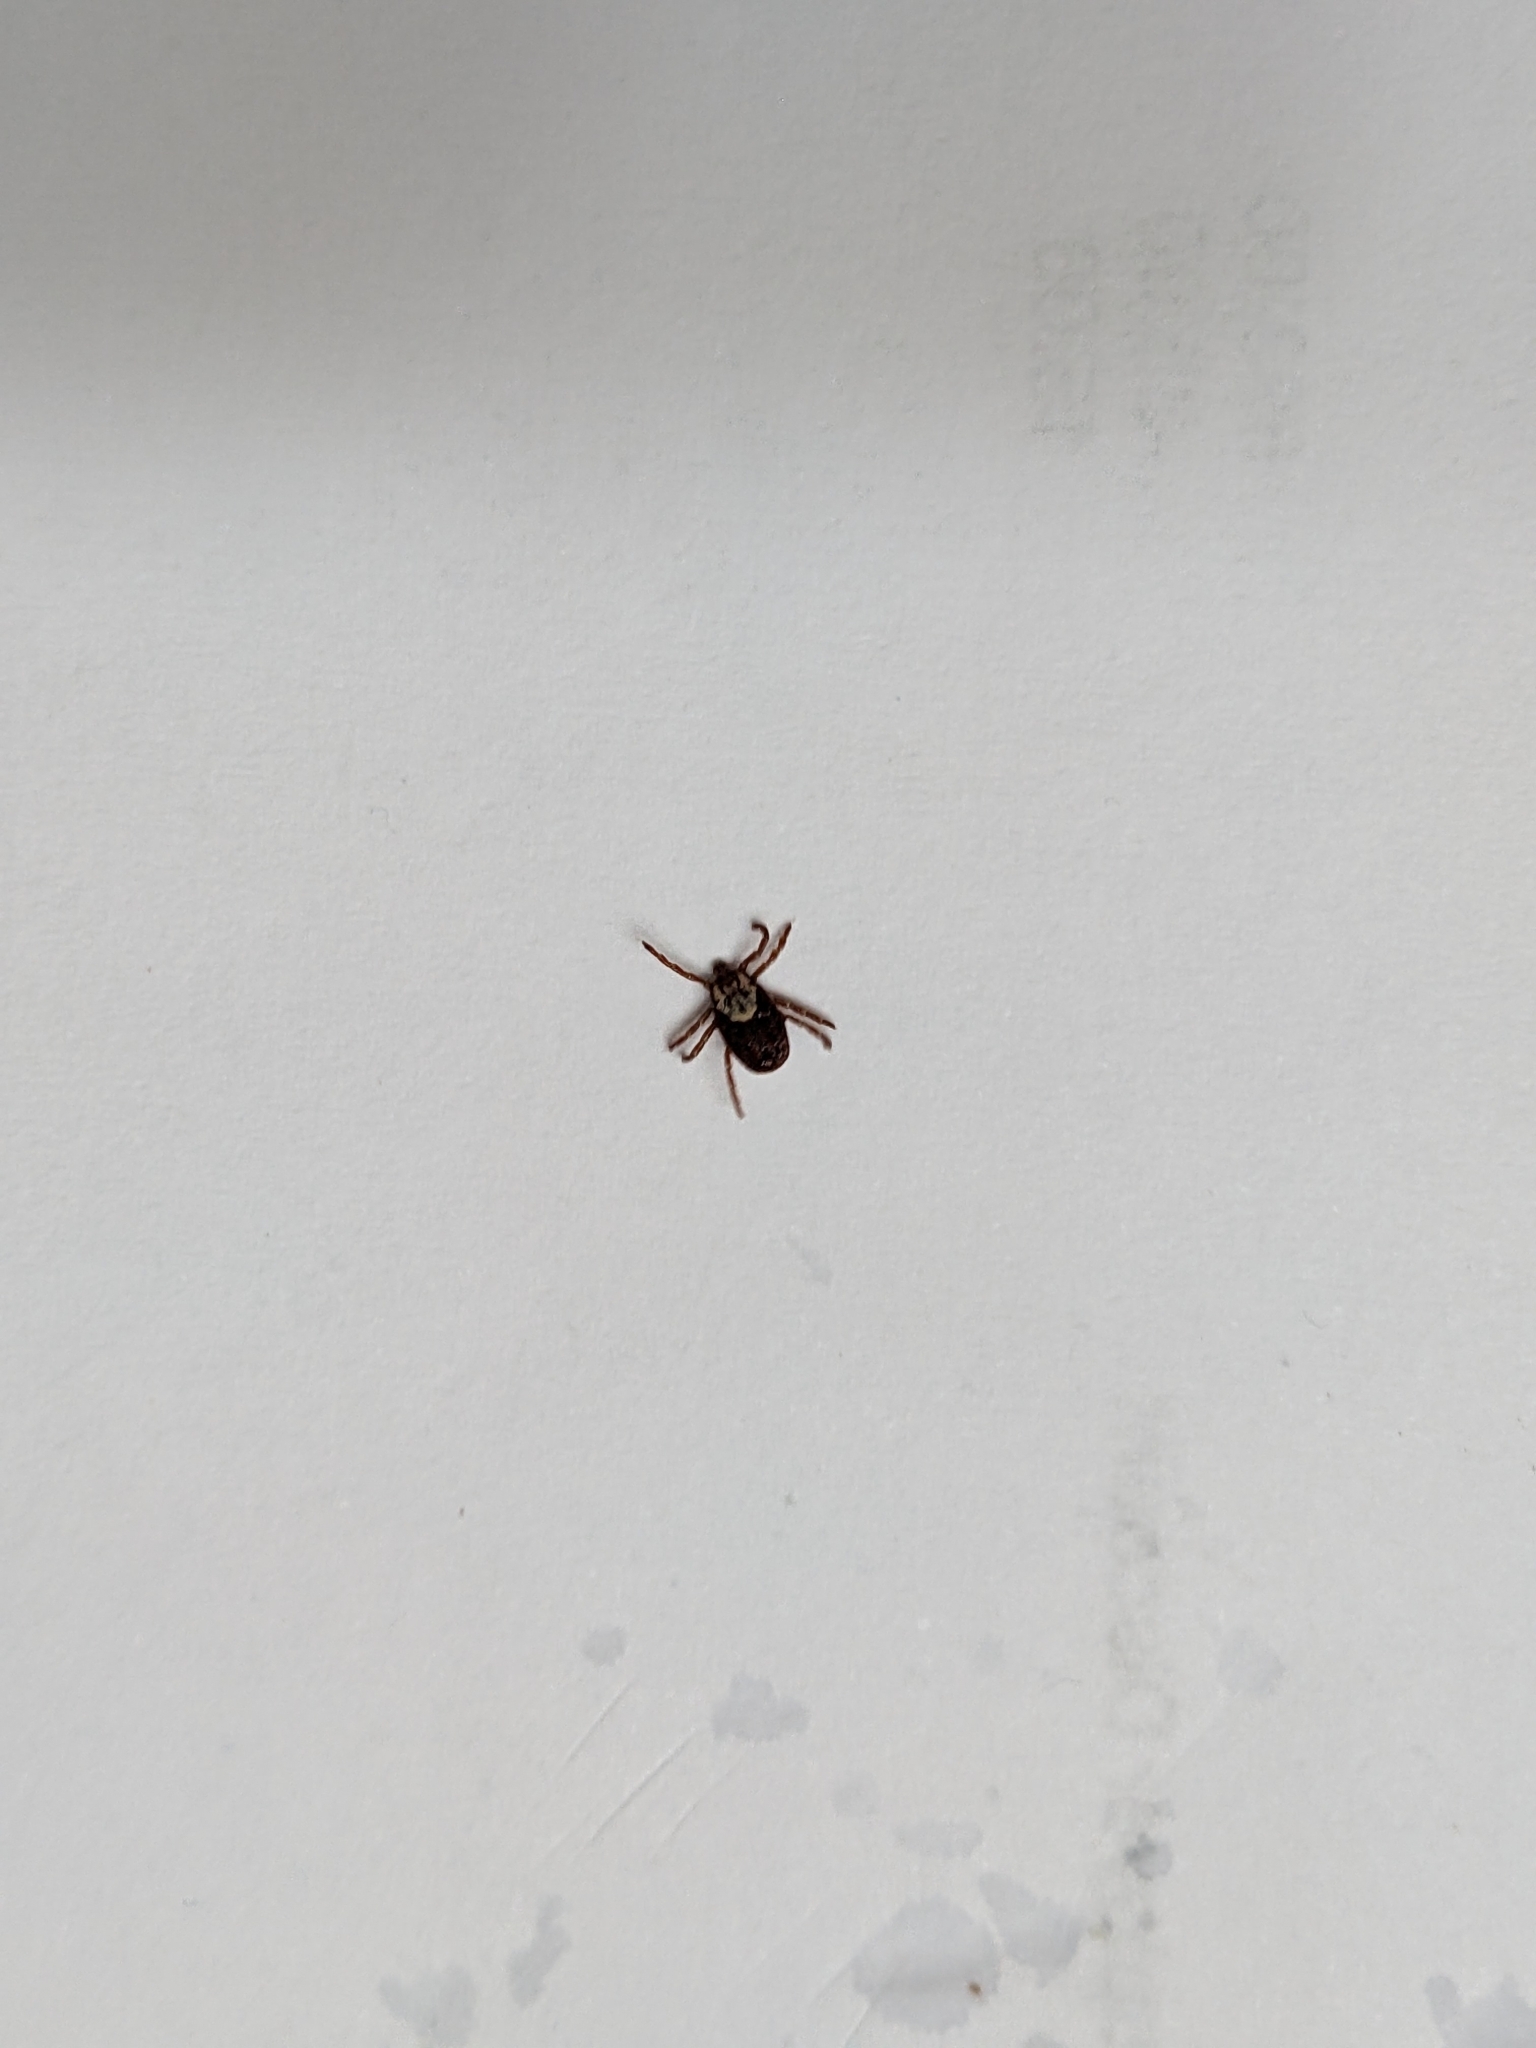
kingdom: Animalia
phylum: Arthropoda
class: Arachnida
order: Ixodida
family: Ixodidae
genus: Dermacentor
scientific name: Dermacentor variabilis
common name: American dog tick
